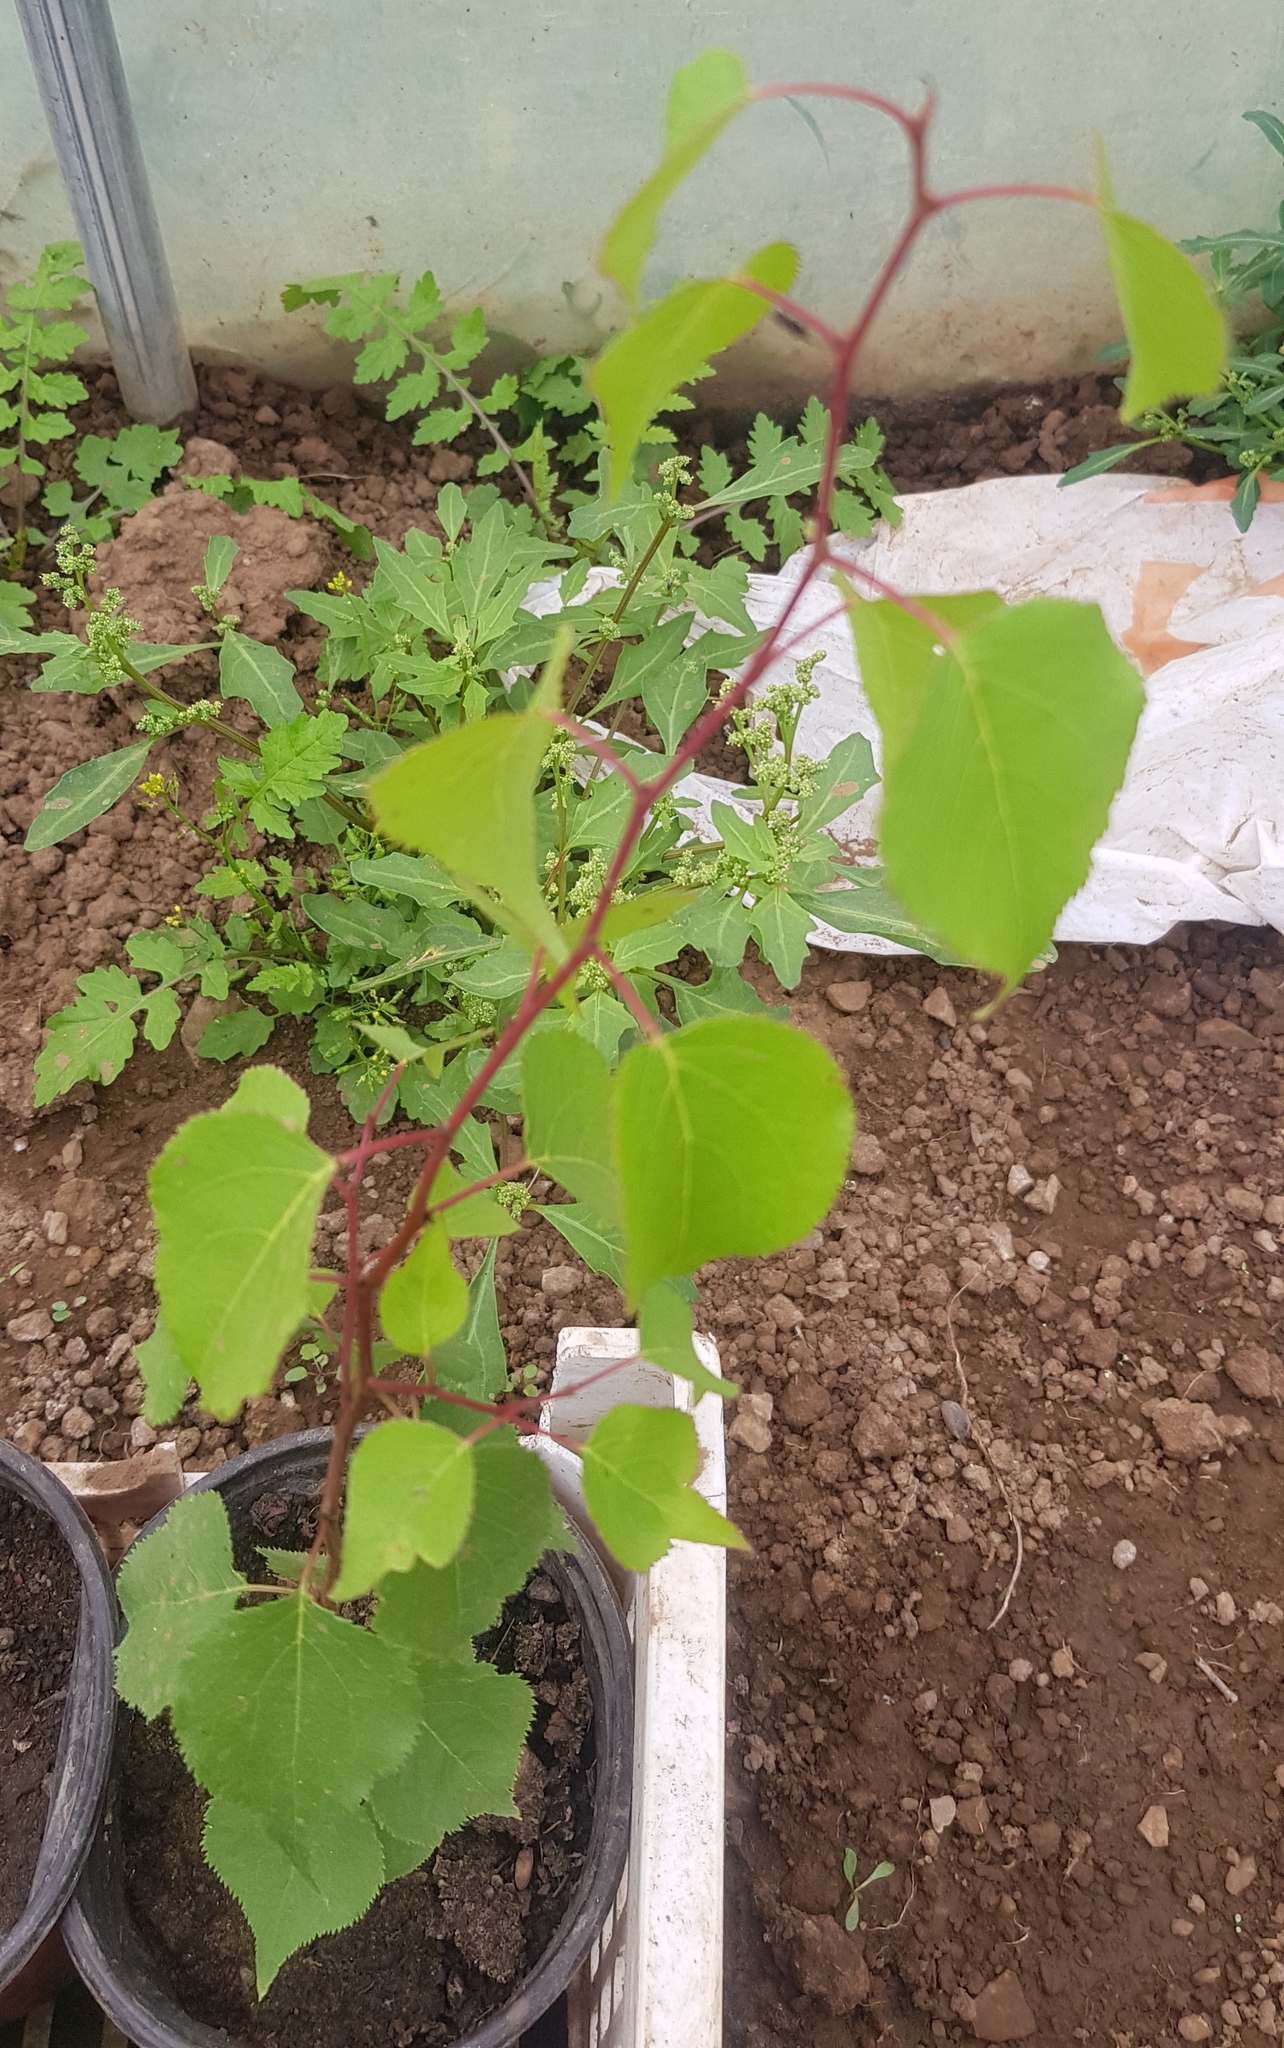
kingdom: Plantae
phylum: Tracheophyta
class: Magnoliopsida
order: Rosales
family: Rosaceae
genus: Prunus
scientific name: Prunus armeniaca
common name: Apricot
